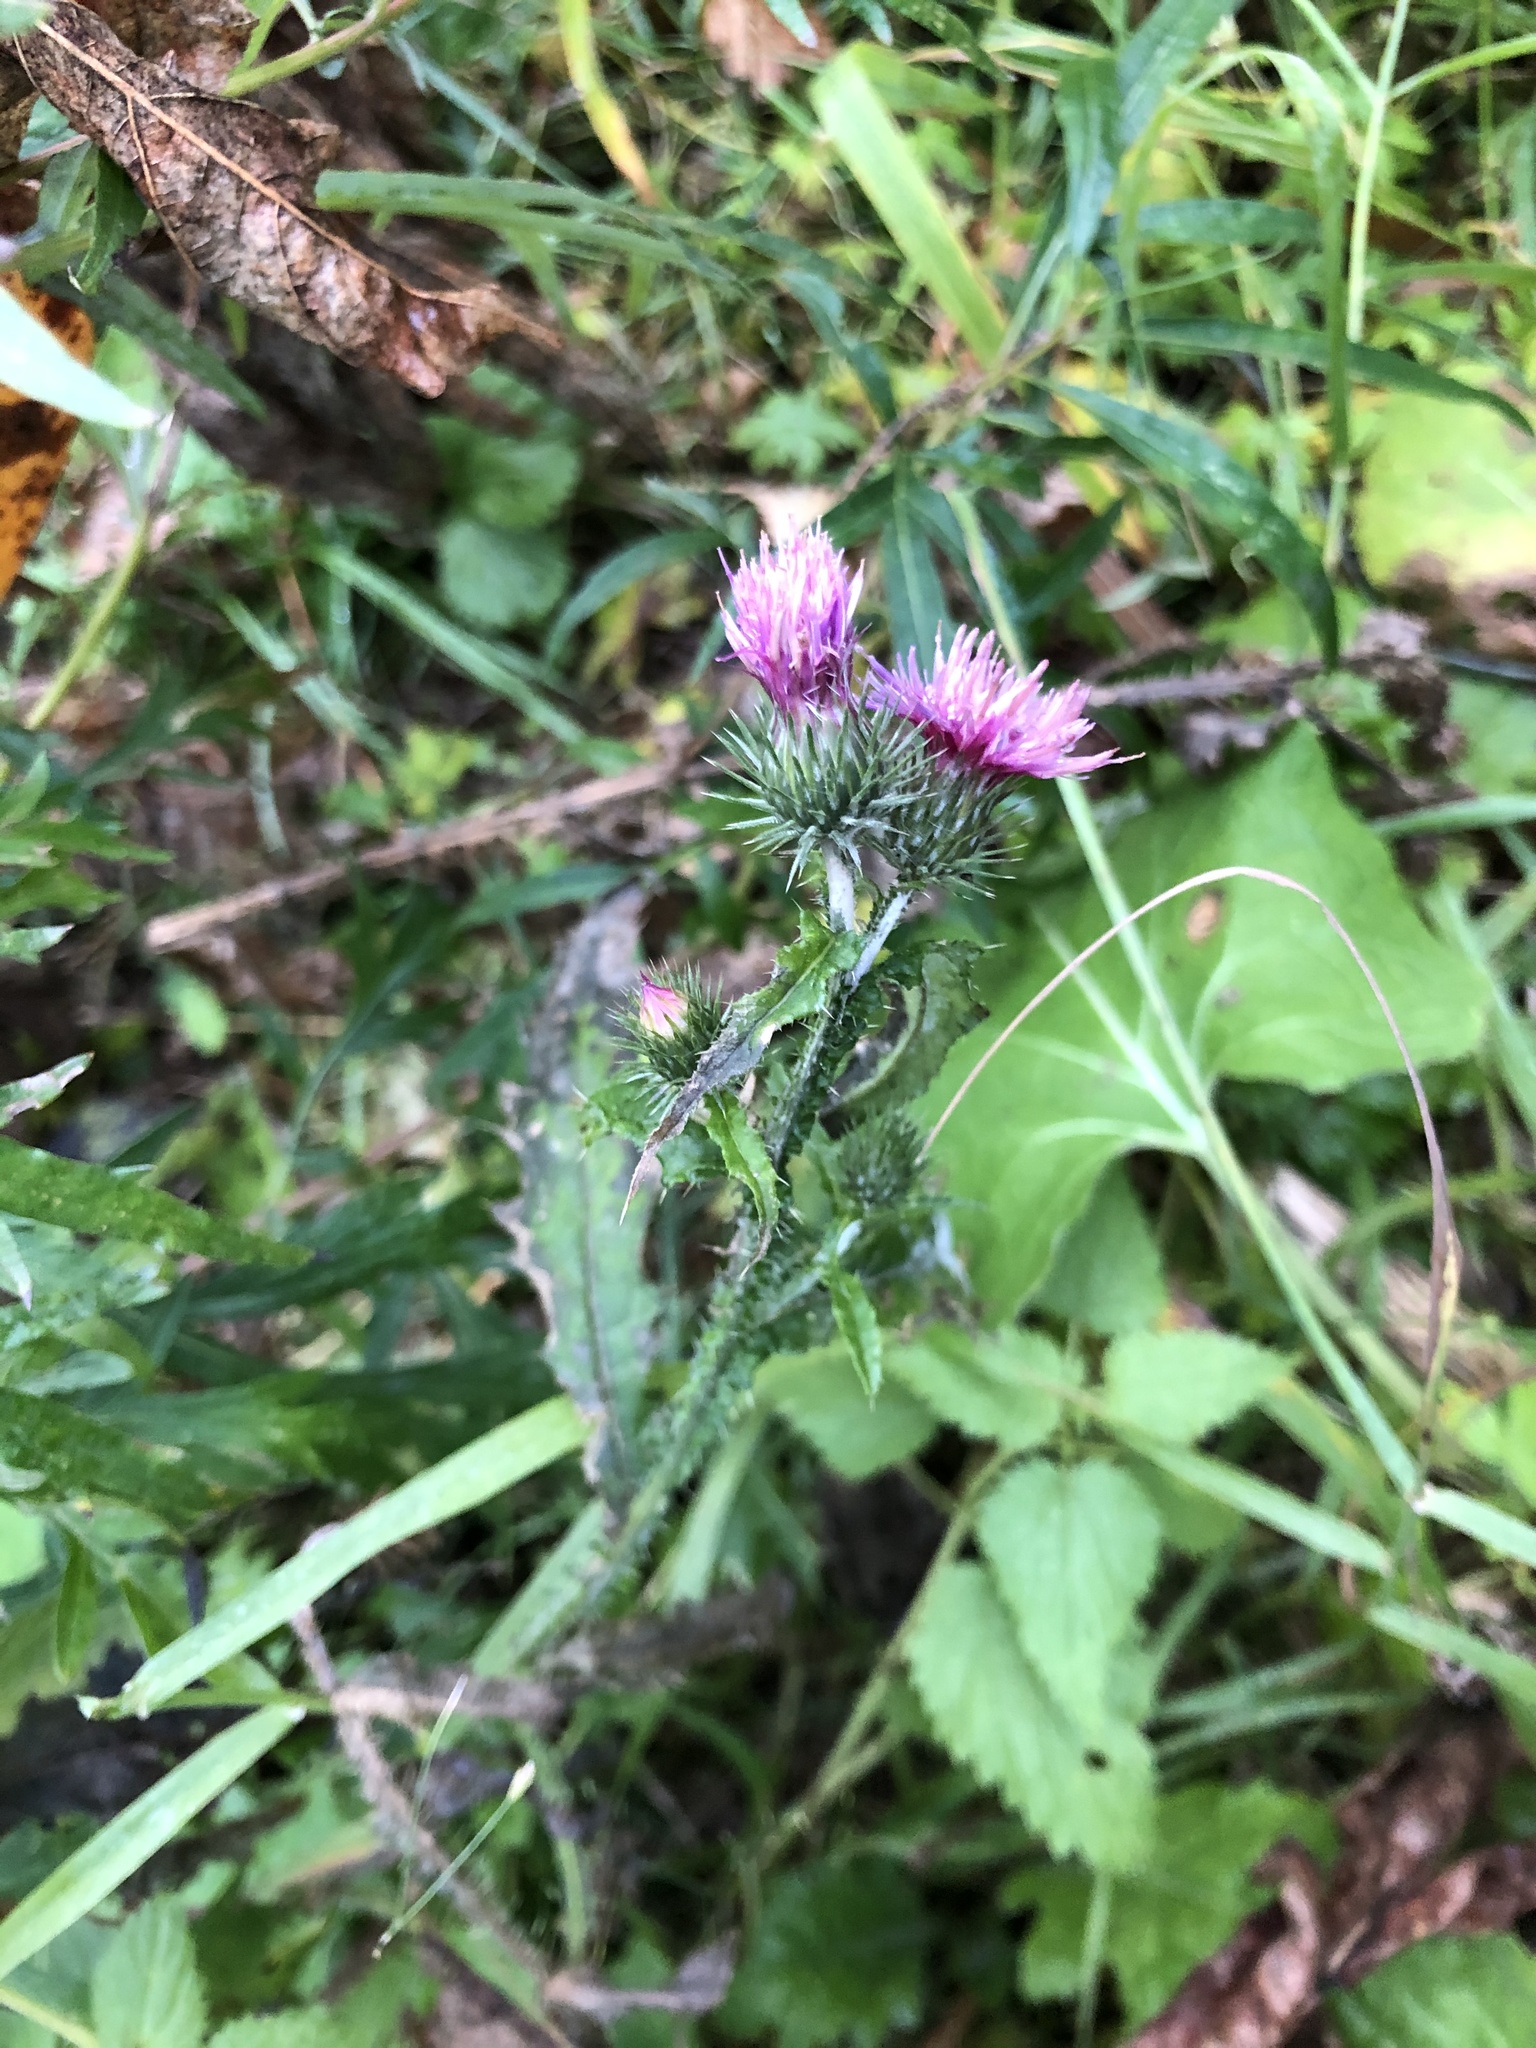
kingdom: Plantae
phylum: Tracheophyta
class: Magnoliopsida
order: Asterales
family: Asteraceae
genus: Carduus
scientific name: Carduus crispus
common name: Welted thistle
